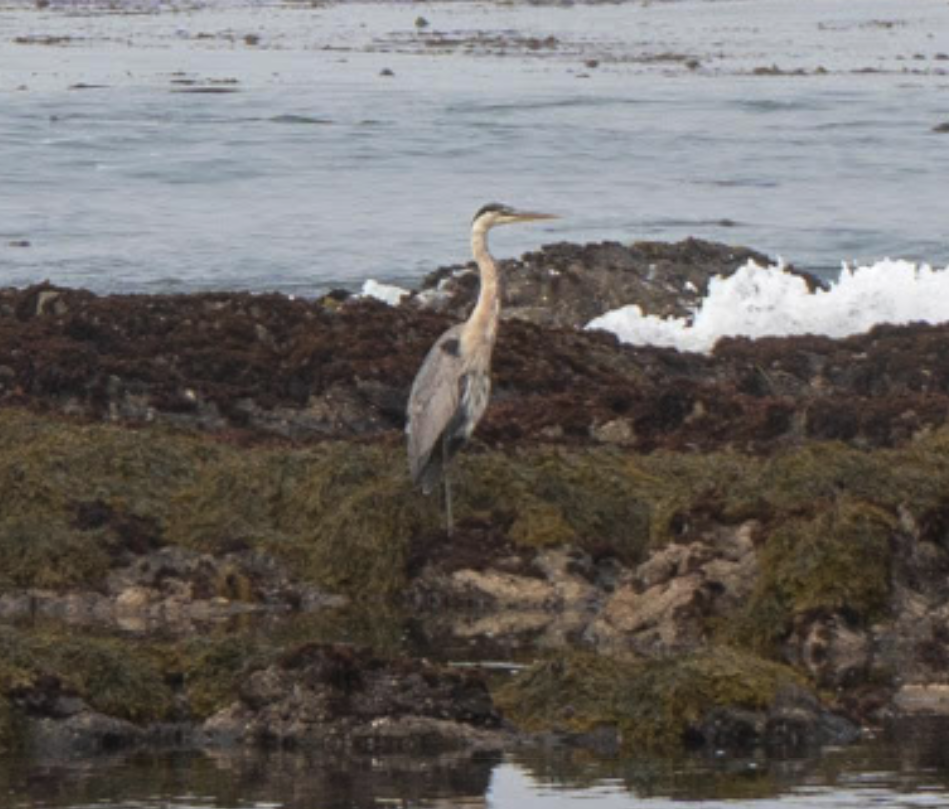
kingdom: Animalia
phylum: Chordata
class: Aves
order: Pelecaniformes
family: Ardeidae
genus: Ardea
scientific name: Ardea herodias
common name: Great blue heron
